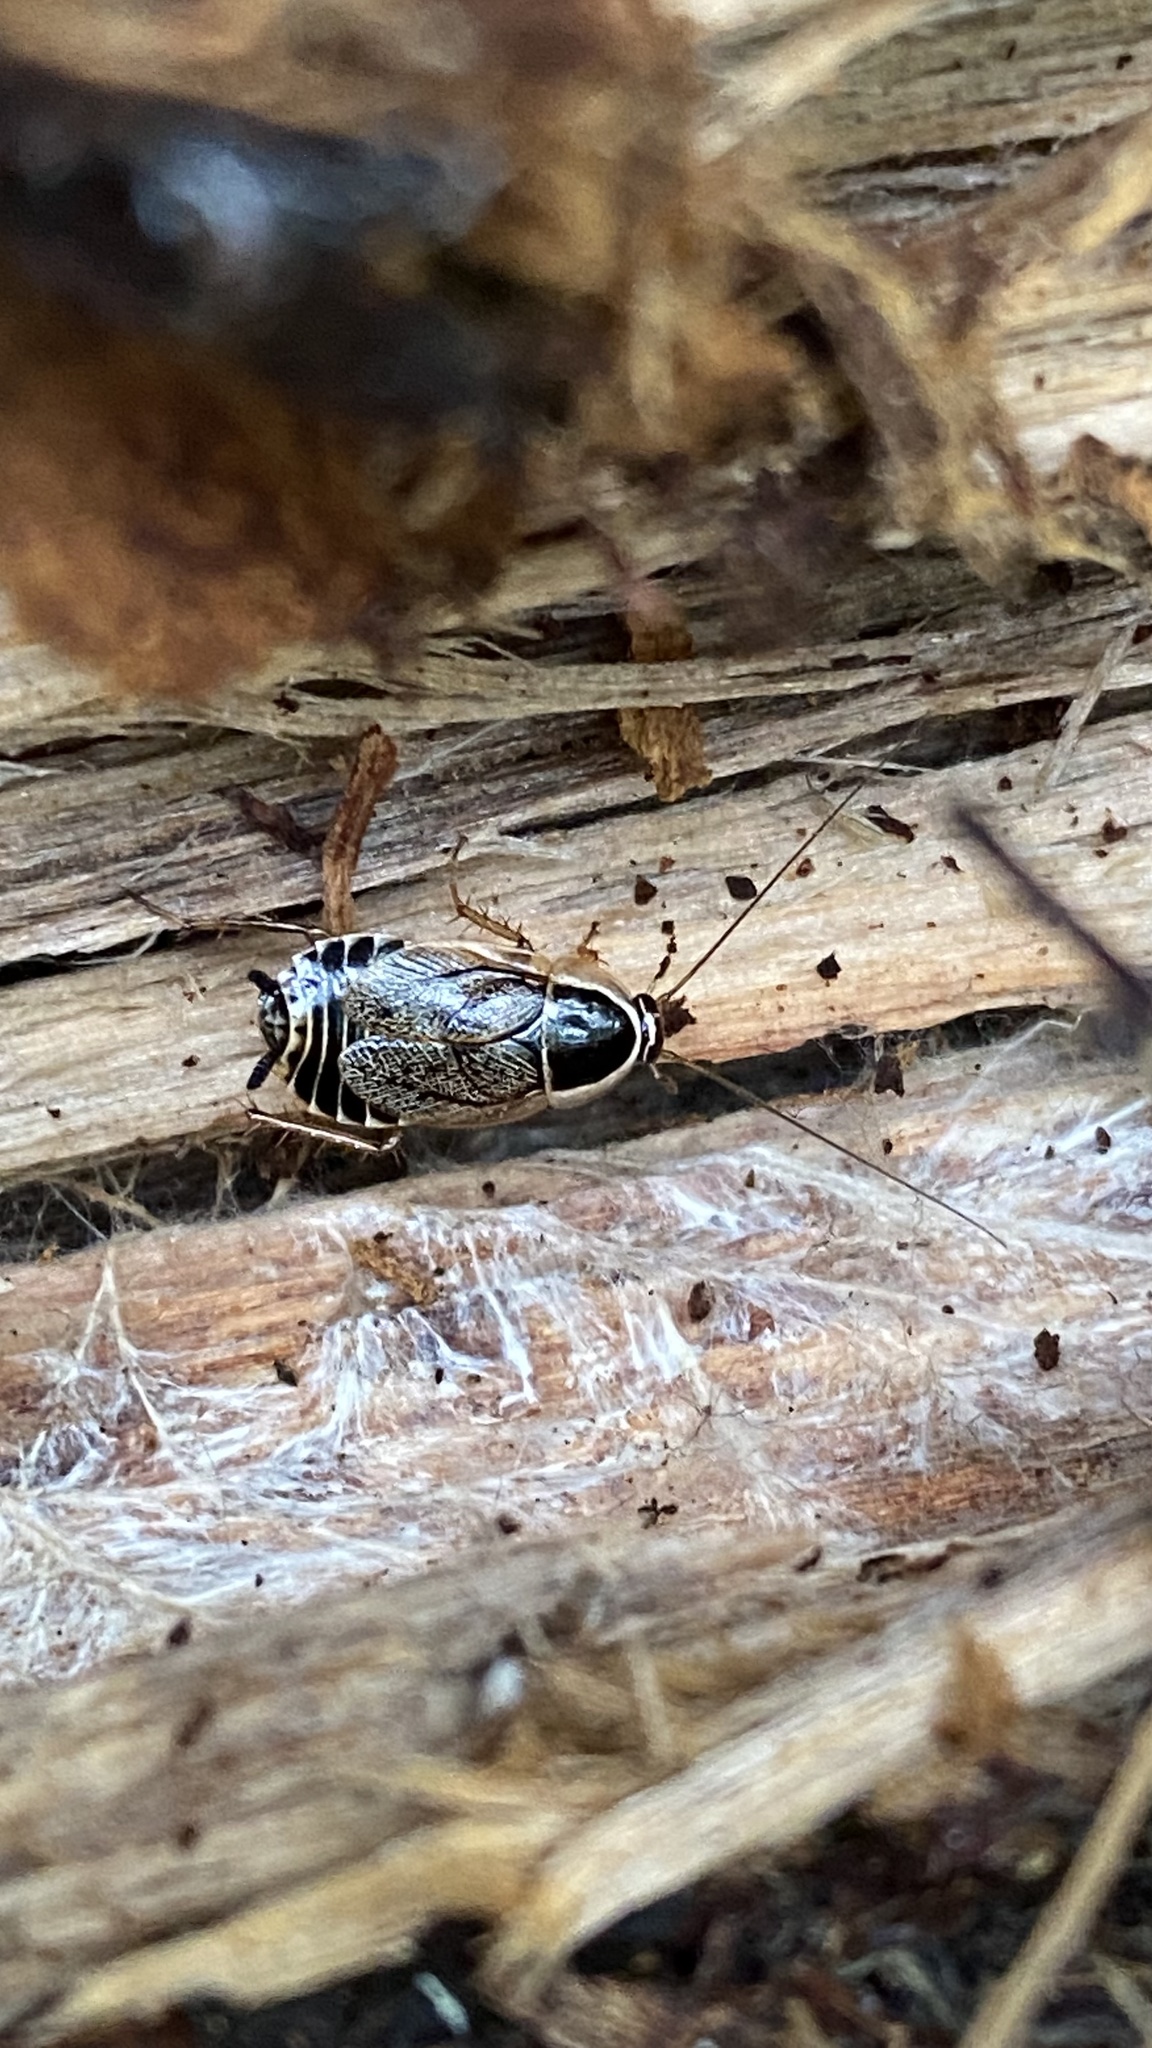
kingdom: Animalia
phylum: Arthropoda
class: Insecta
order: Blattodea
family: Ectobiidae
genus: Ectobius
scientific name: Ectobius sylvestris
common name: Forest cockroach
